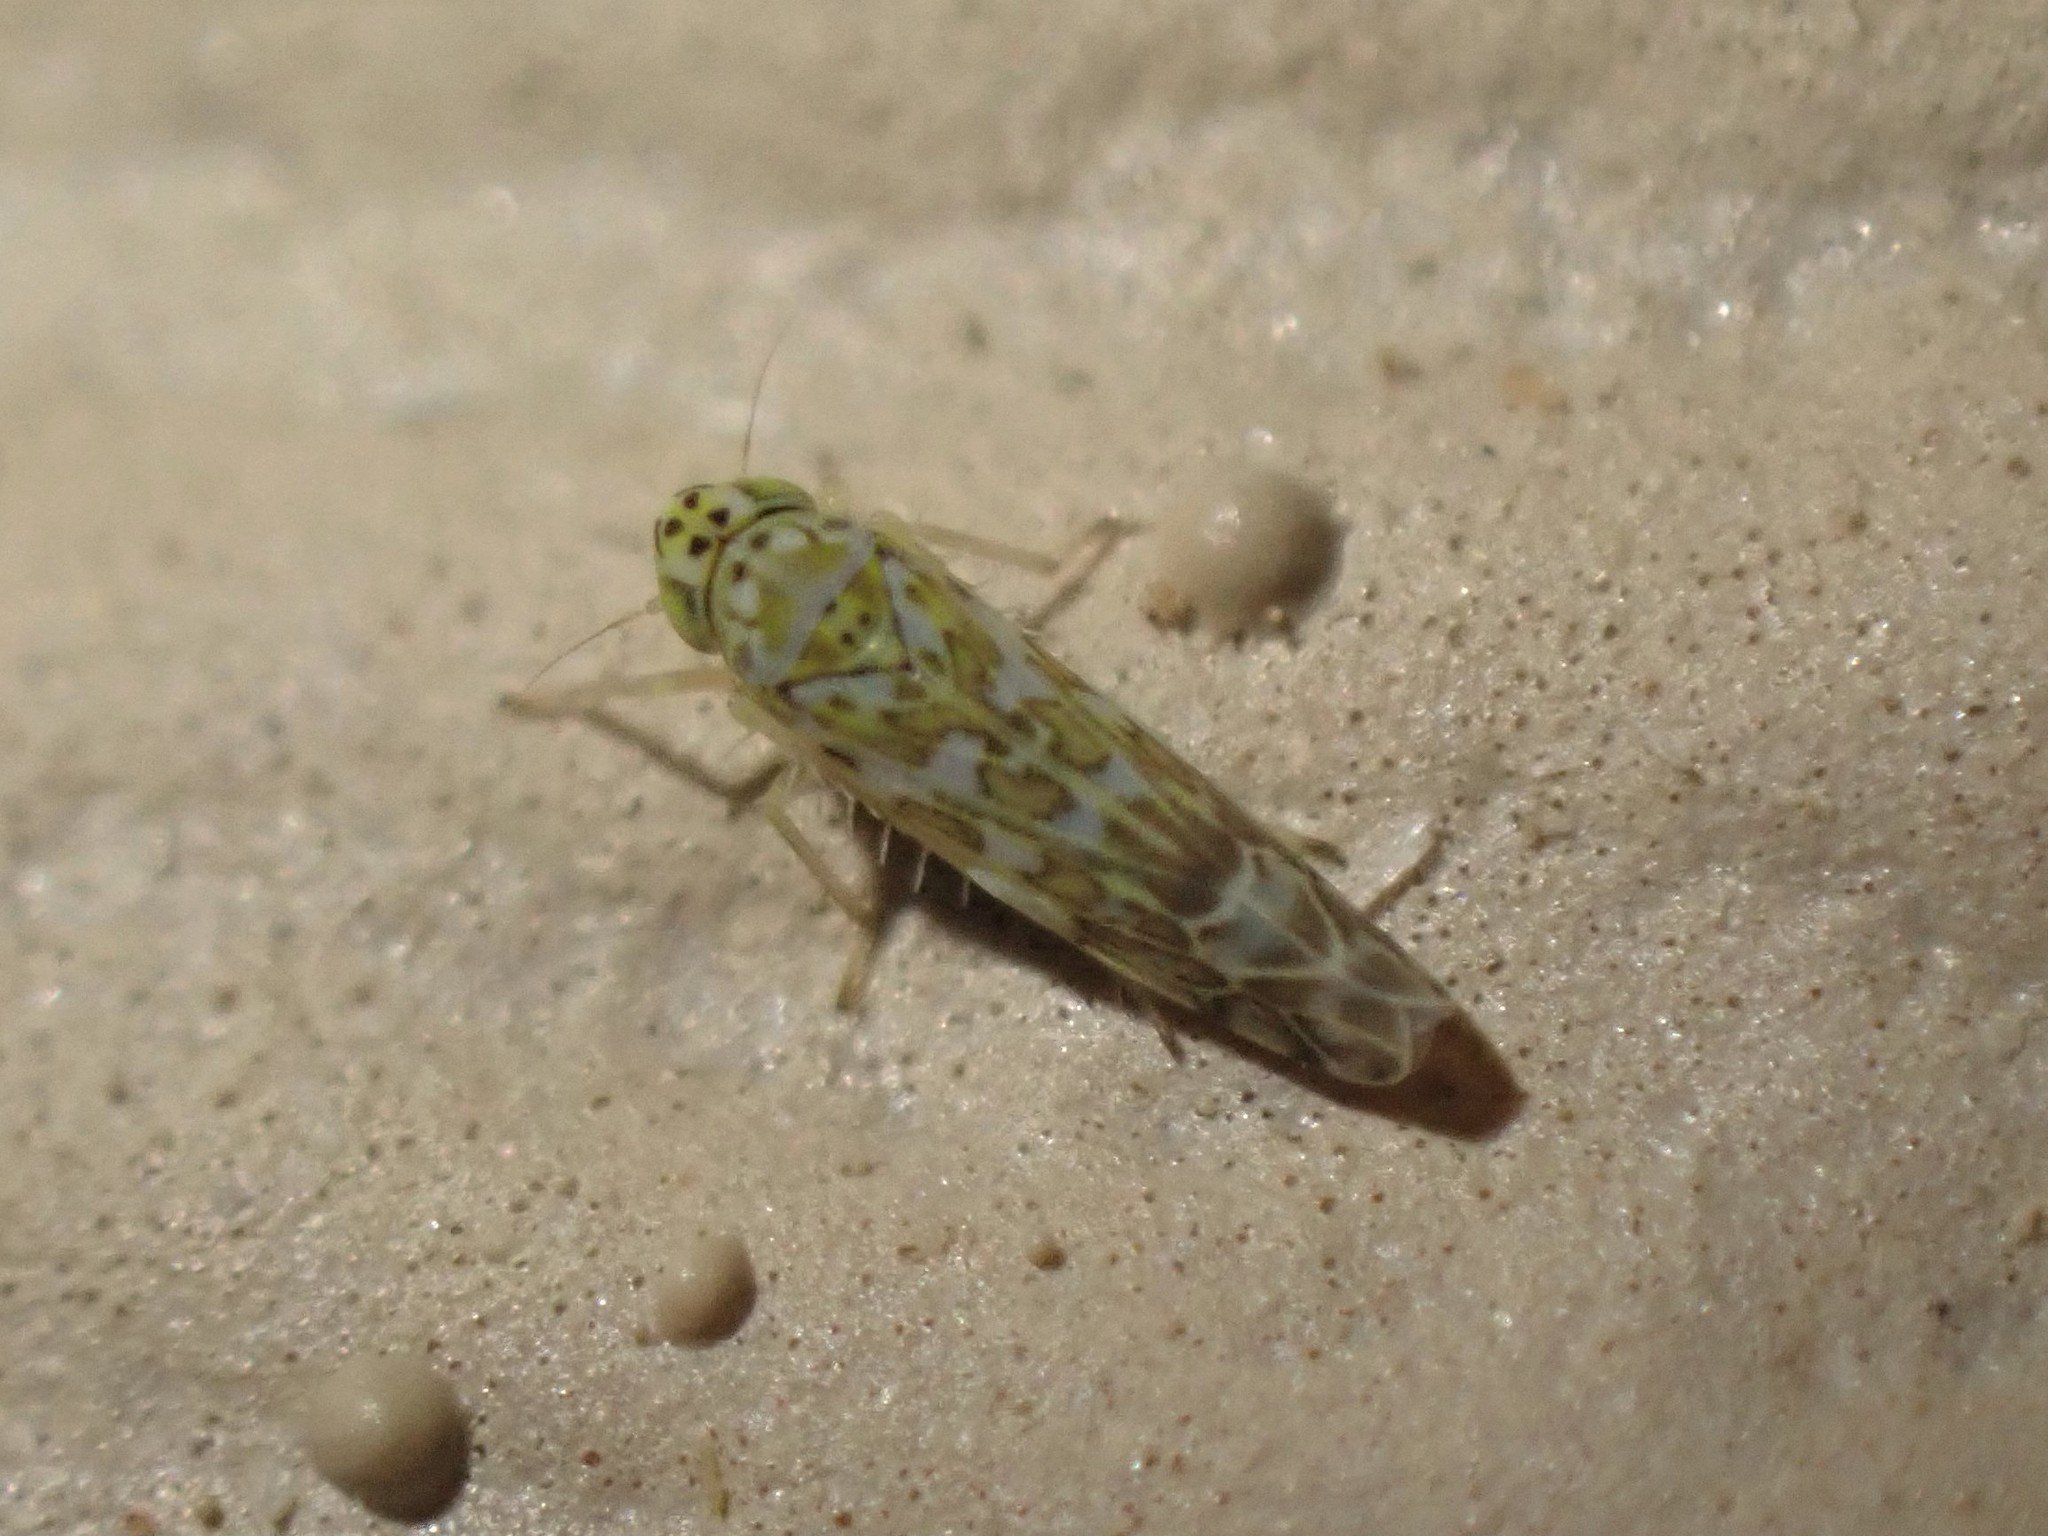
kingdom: Animalia
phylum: Arthropoda
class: Insecta
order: Hemiptera
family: Cicadellidae
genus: Eupteryx
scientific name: Eupteryx decemnotata
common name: Ligurian leafhopper
